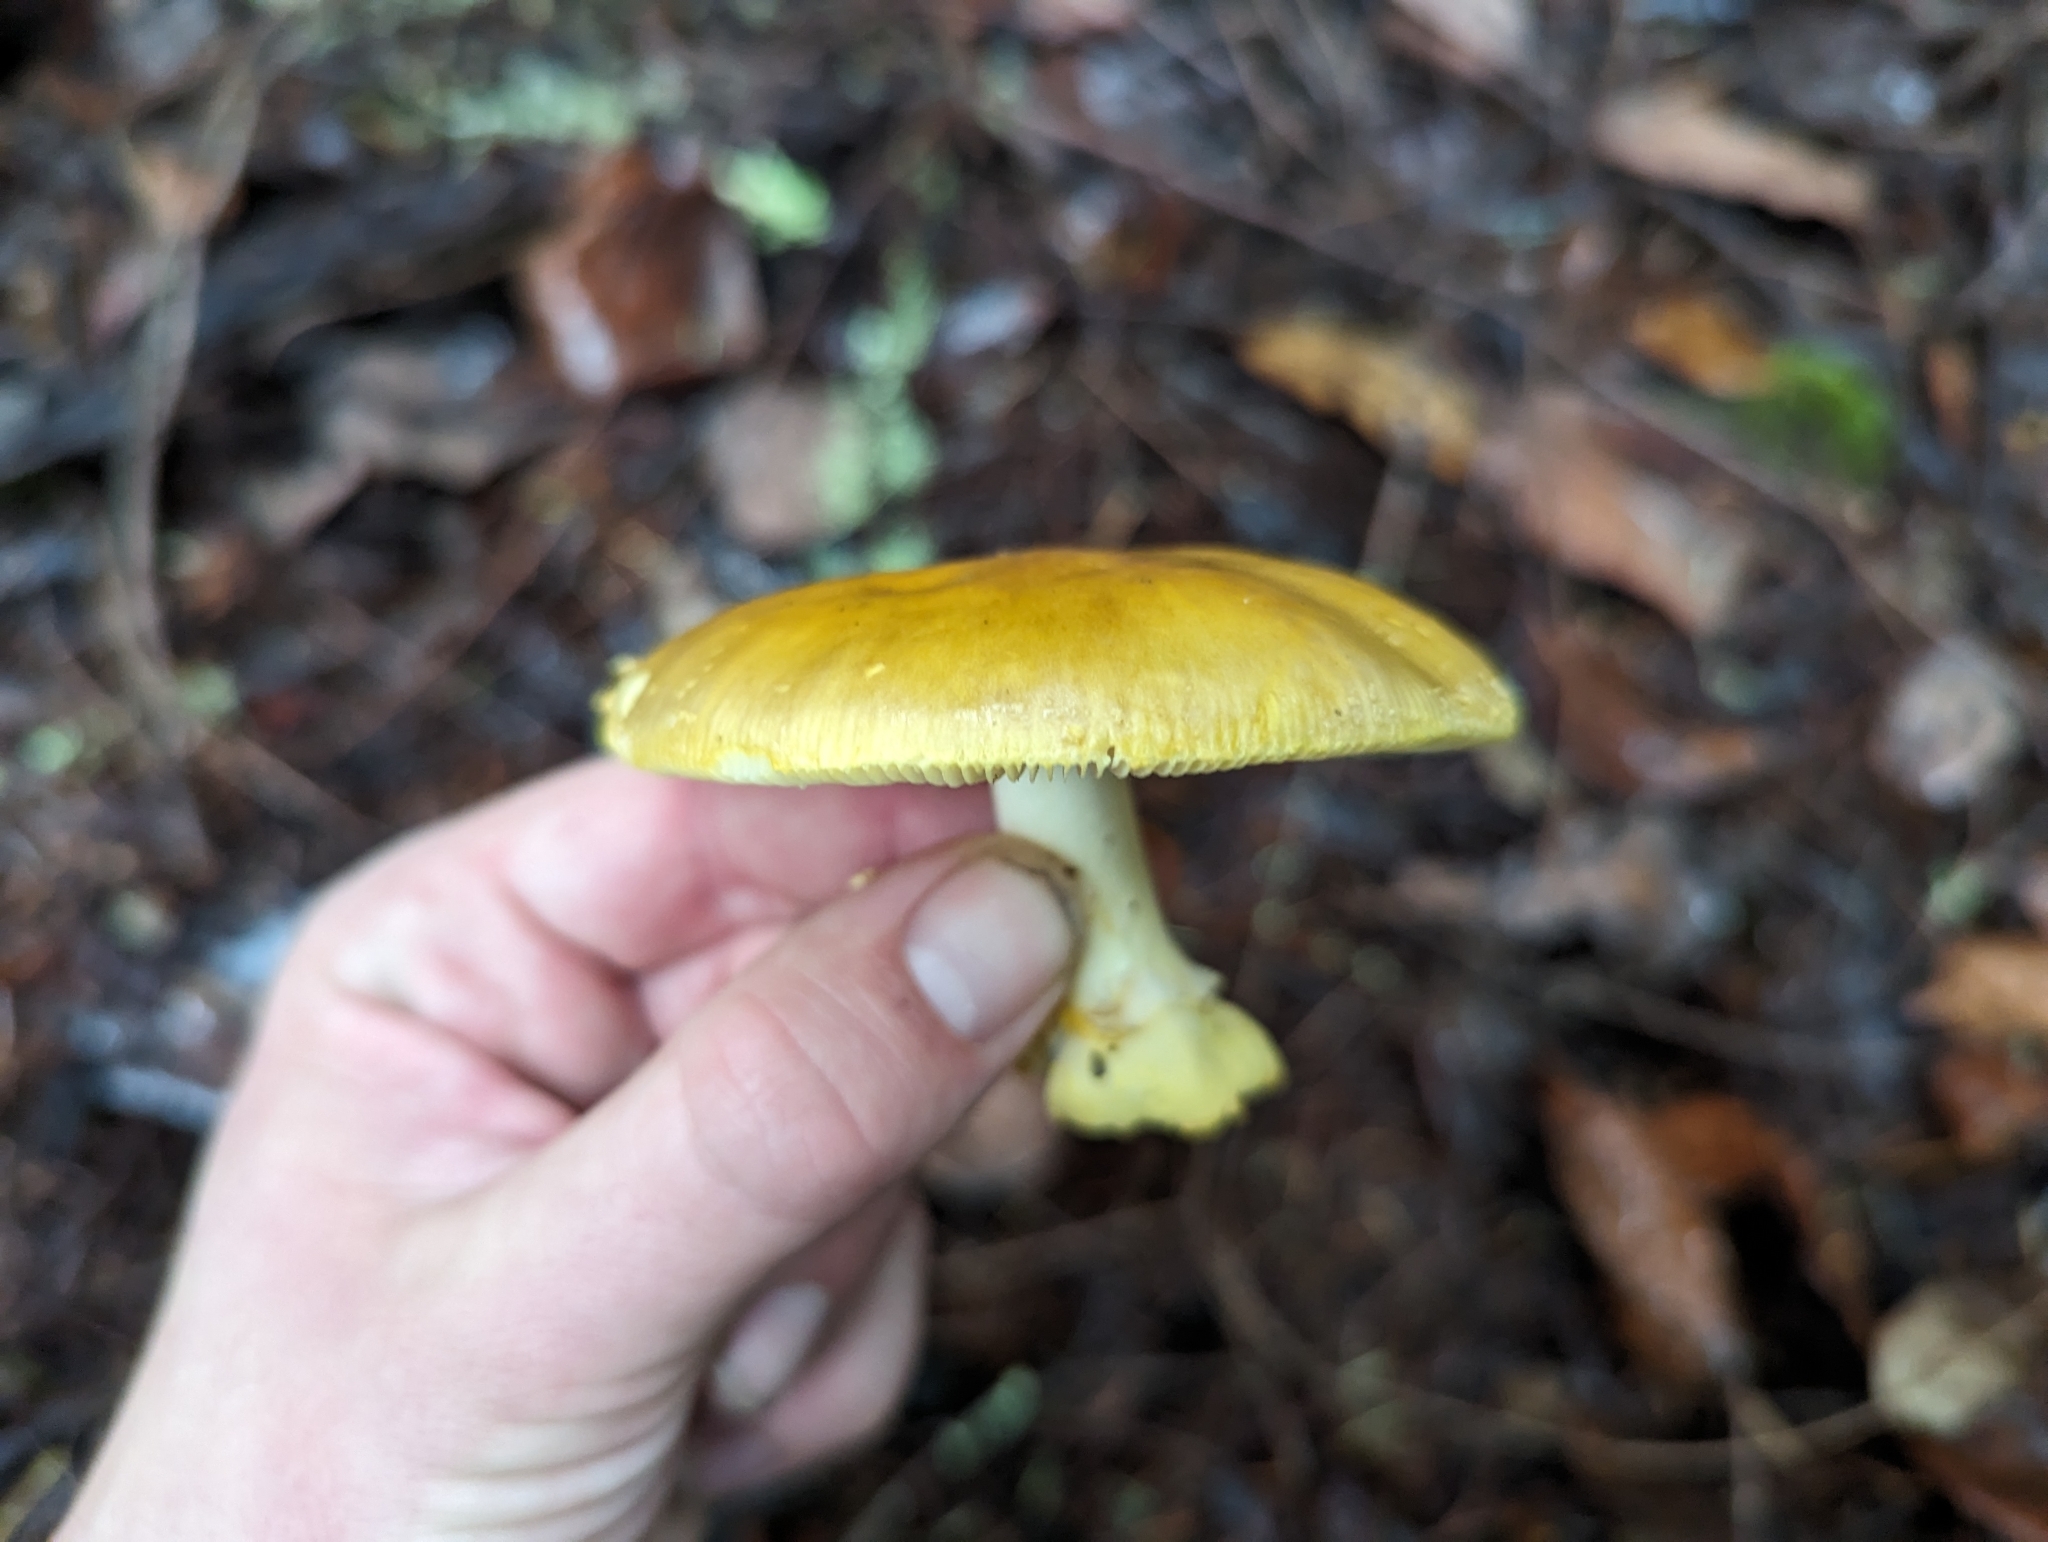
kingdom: Fungi
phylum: Basidiomycota
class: Agaricomycetes
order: Agaricales
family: Amanitaceae
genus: Amanita
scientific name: Amanita augusta
